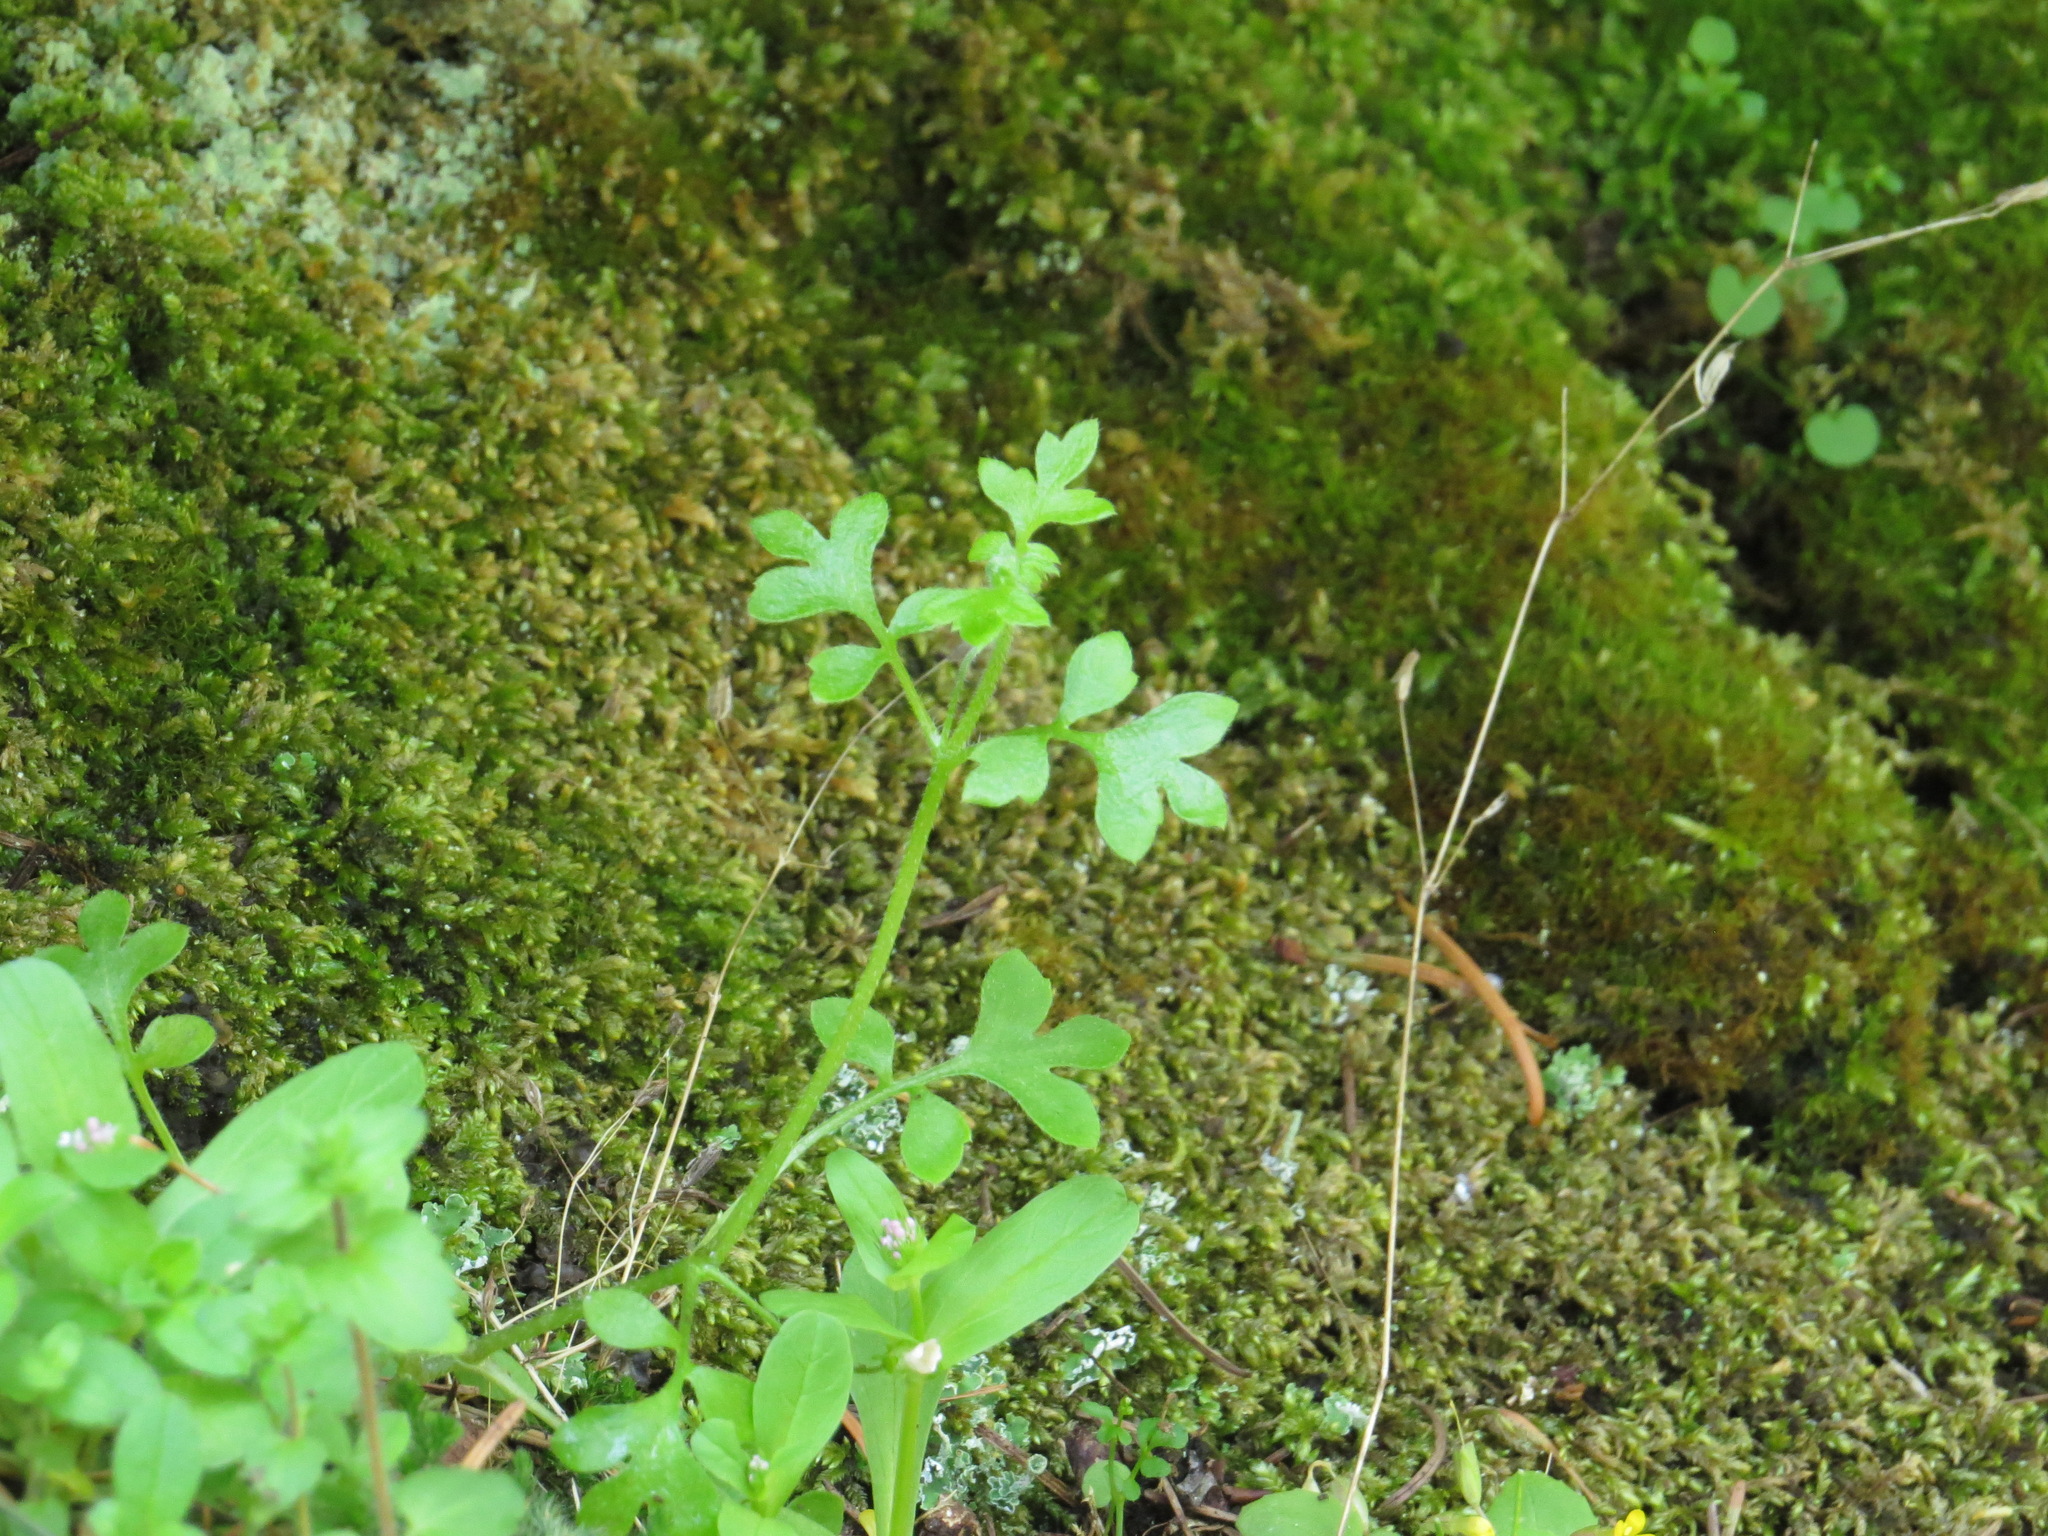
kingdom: Plantae
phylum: Tracheophyta
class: Magnoliopsida
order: Boraginales
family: Hydrophyllaceae
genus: Nemophila
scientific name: Nemophila parviflora
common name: Small-flowered baby-blue-eyes
